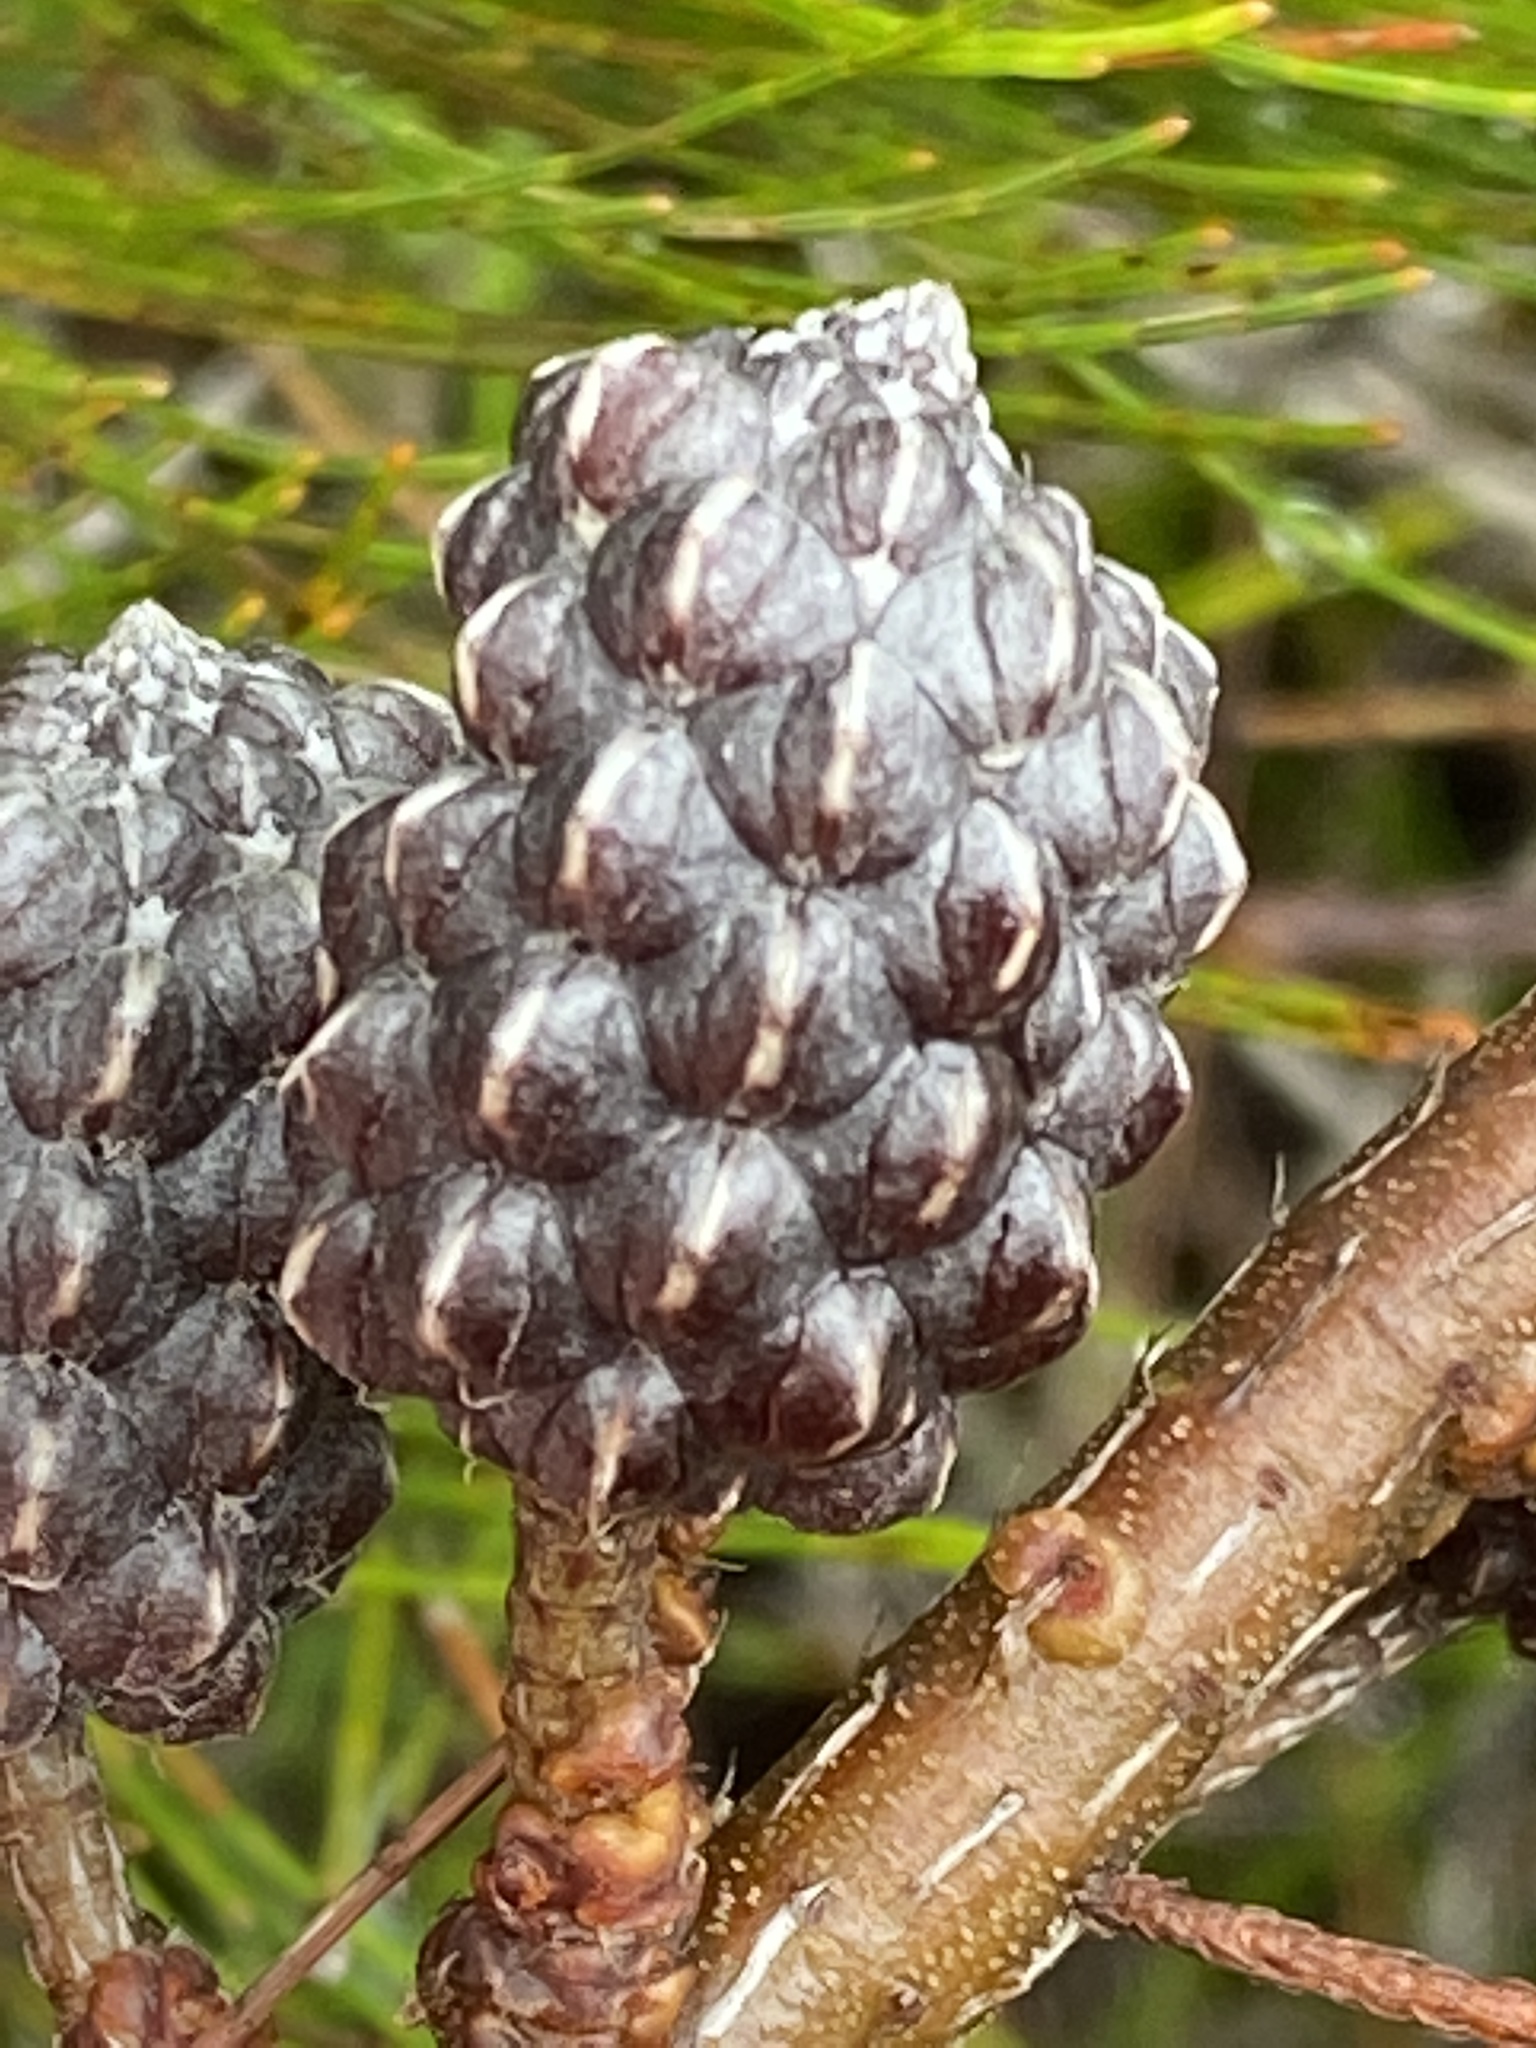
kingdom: Plantae
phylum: Tracheophyta
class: Magnoliopsida
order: Fagales
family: Casuarinaceae
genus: Allocasuarina
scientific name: Allocasuarina thalassoscopica
